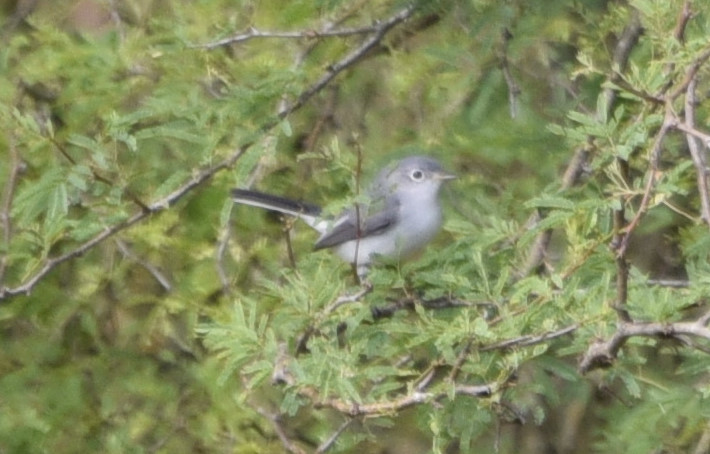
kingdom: Animalia
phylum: Chordata
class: Aves
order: Passeriformes
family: Polioptilidae
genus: Polioptila
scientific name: Polioptila caerulea
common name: Blue-gray gnatcatcher
